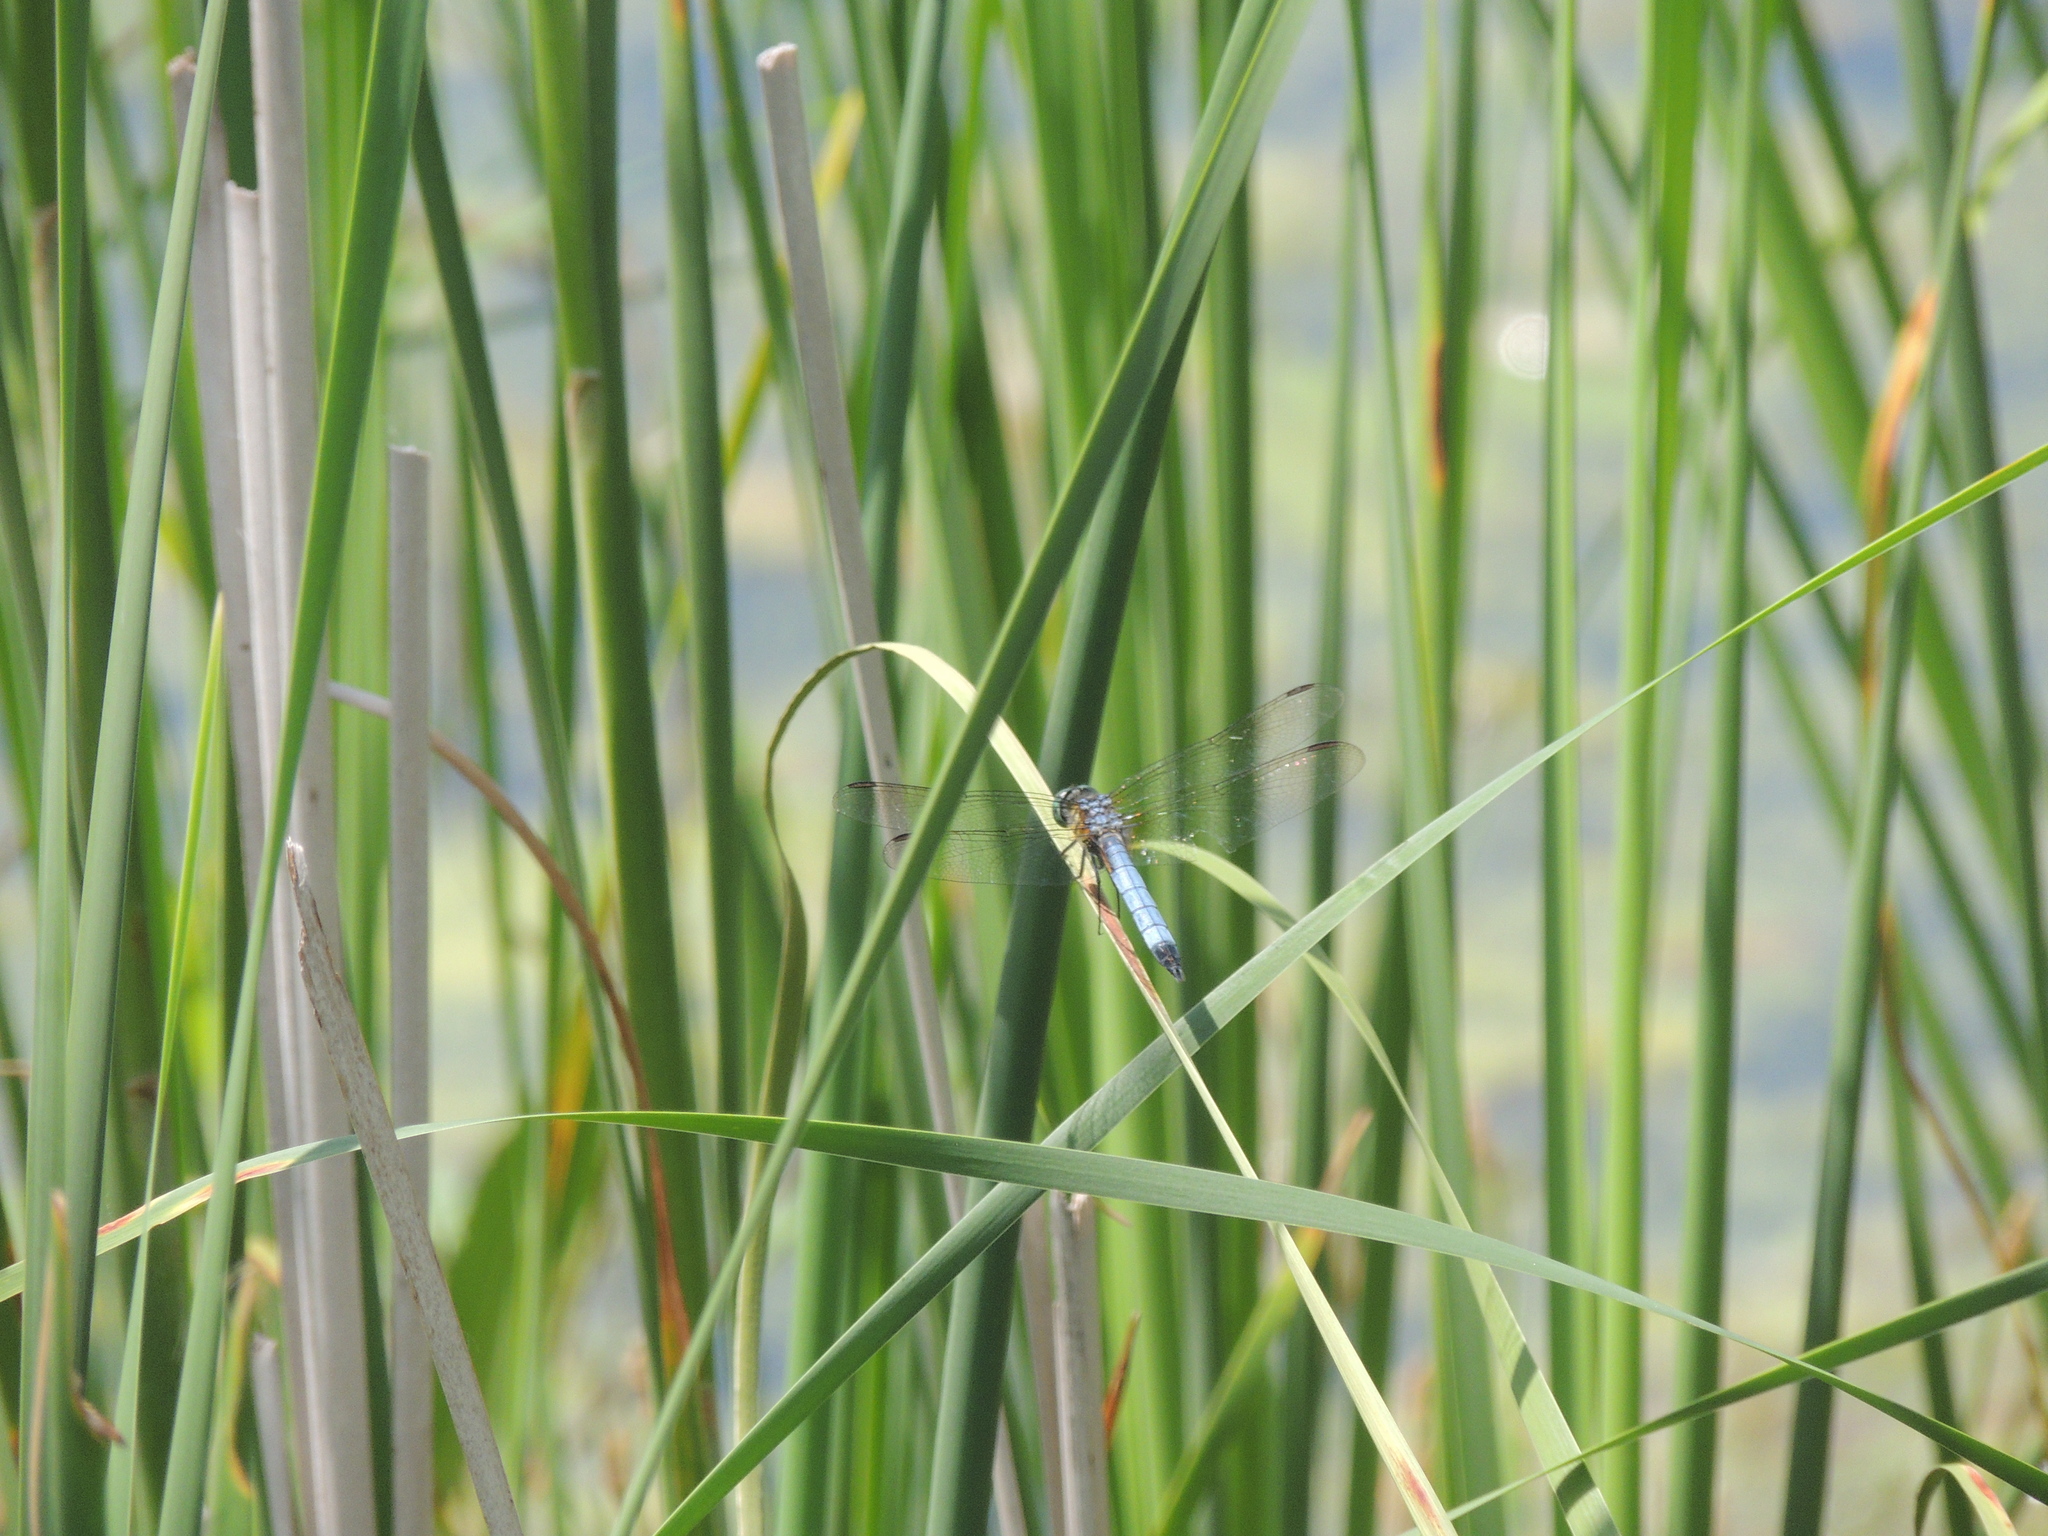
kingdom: Animalia
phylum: Arthropoda
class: Insecta
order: Odonata
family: Libellulidae
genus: Pachydiplax
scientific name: Pachydiplax longipennis
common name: Blue dasher
